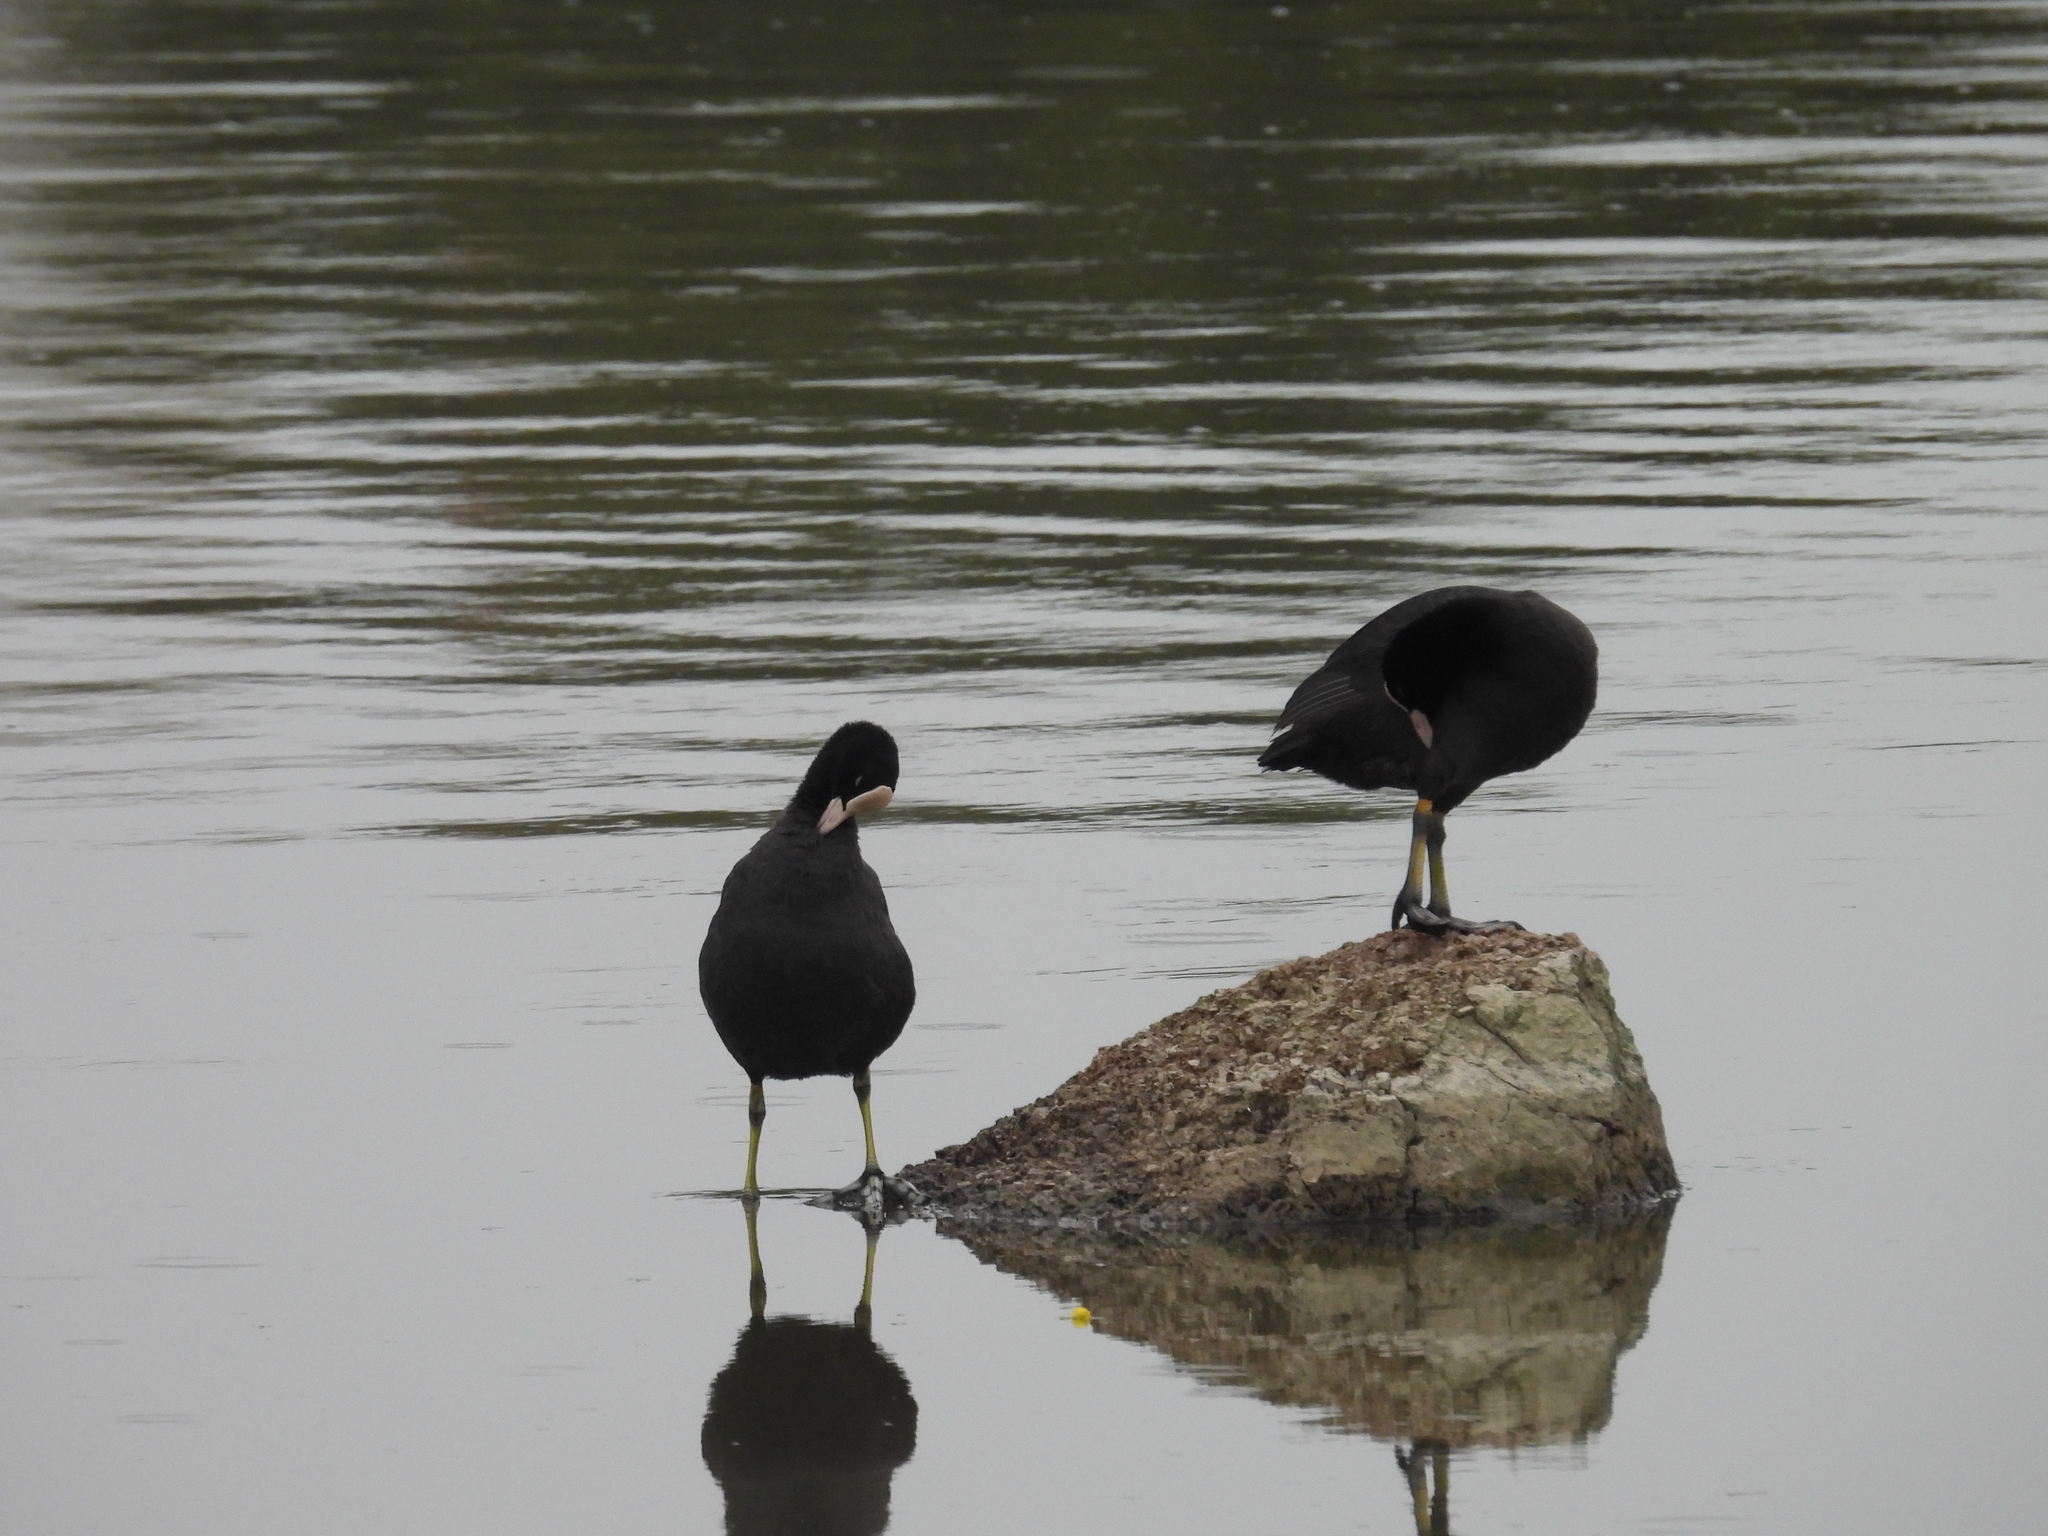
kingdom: Animalia
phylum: Chordata
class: Aves
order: Gruiformes
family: Rallidae
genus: Fulica
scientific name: Fulica atra
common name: Eurasian coot
